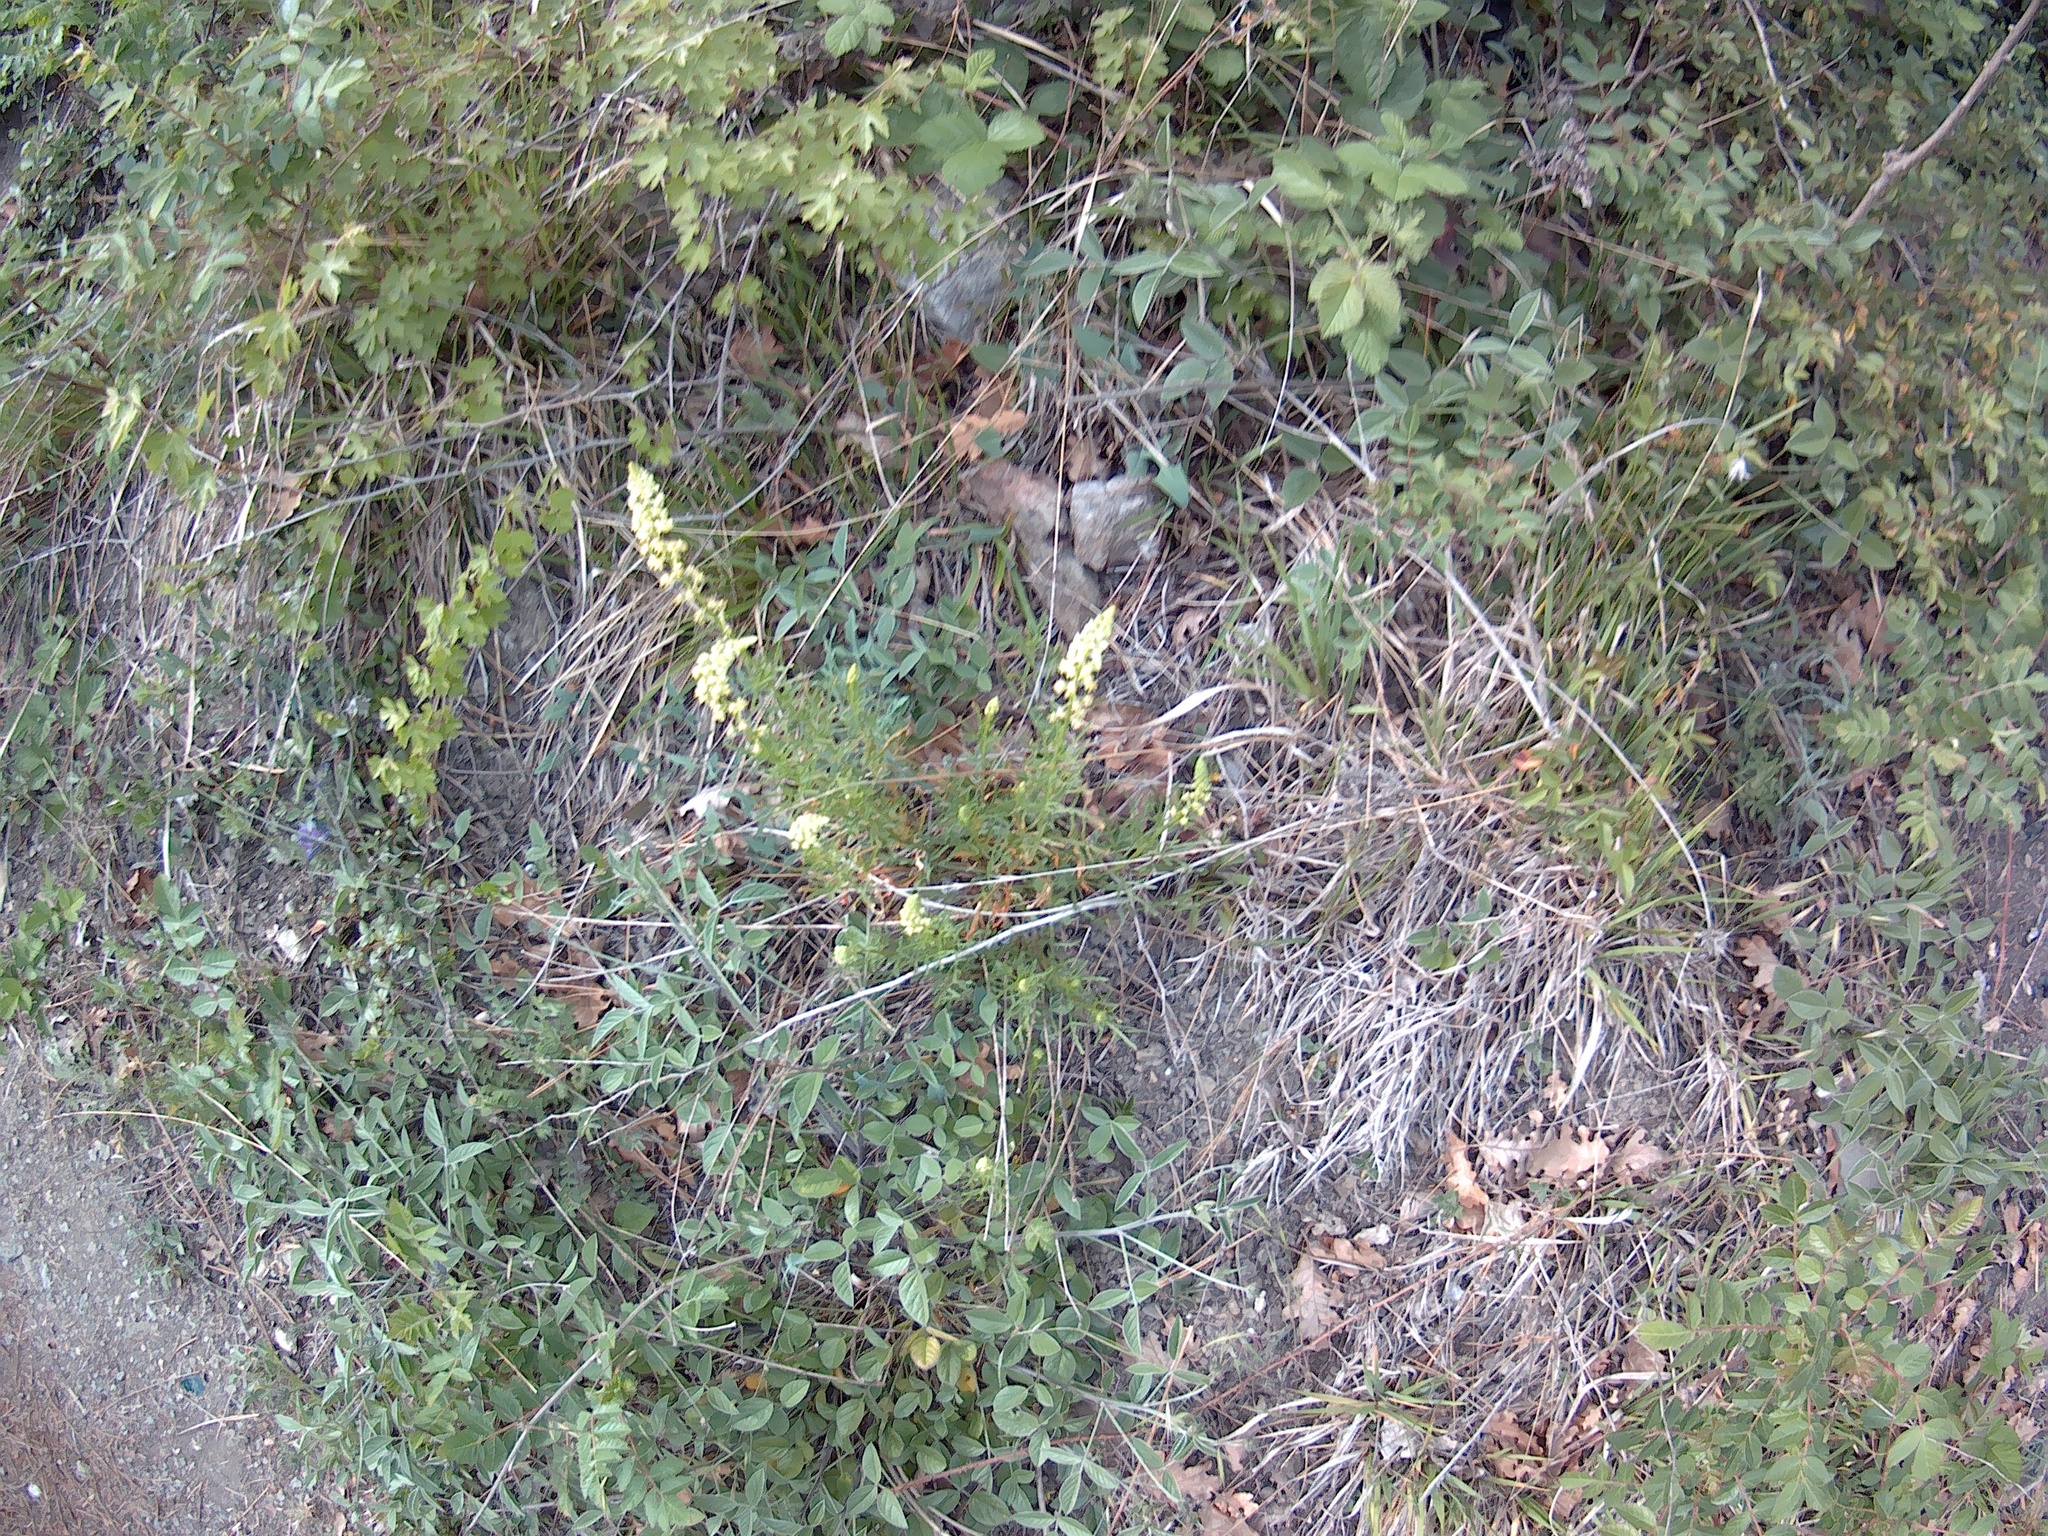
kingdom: Plantae
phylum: Tracheophyta
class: Magnoliopsida
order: Brassicales
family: Resedaceae
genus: Reseda
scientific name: Reseda lutea
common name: Wild mignonette
